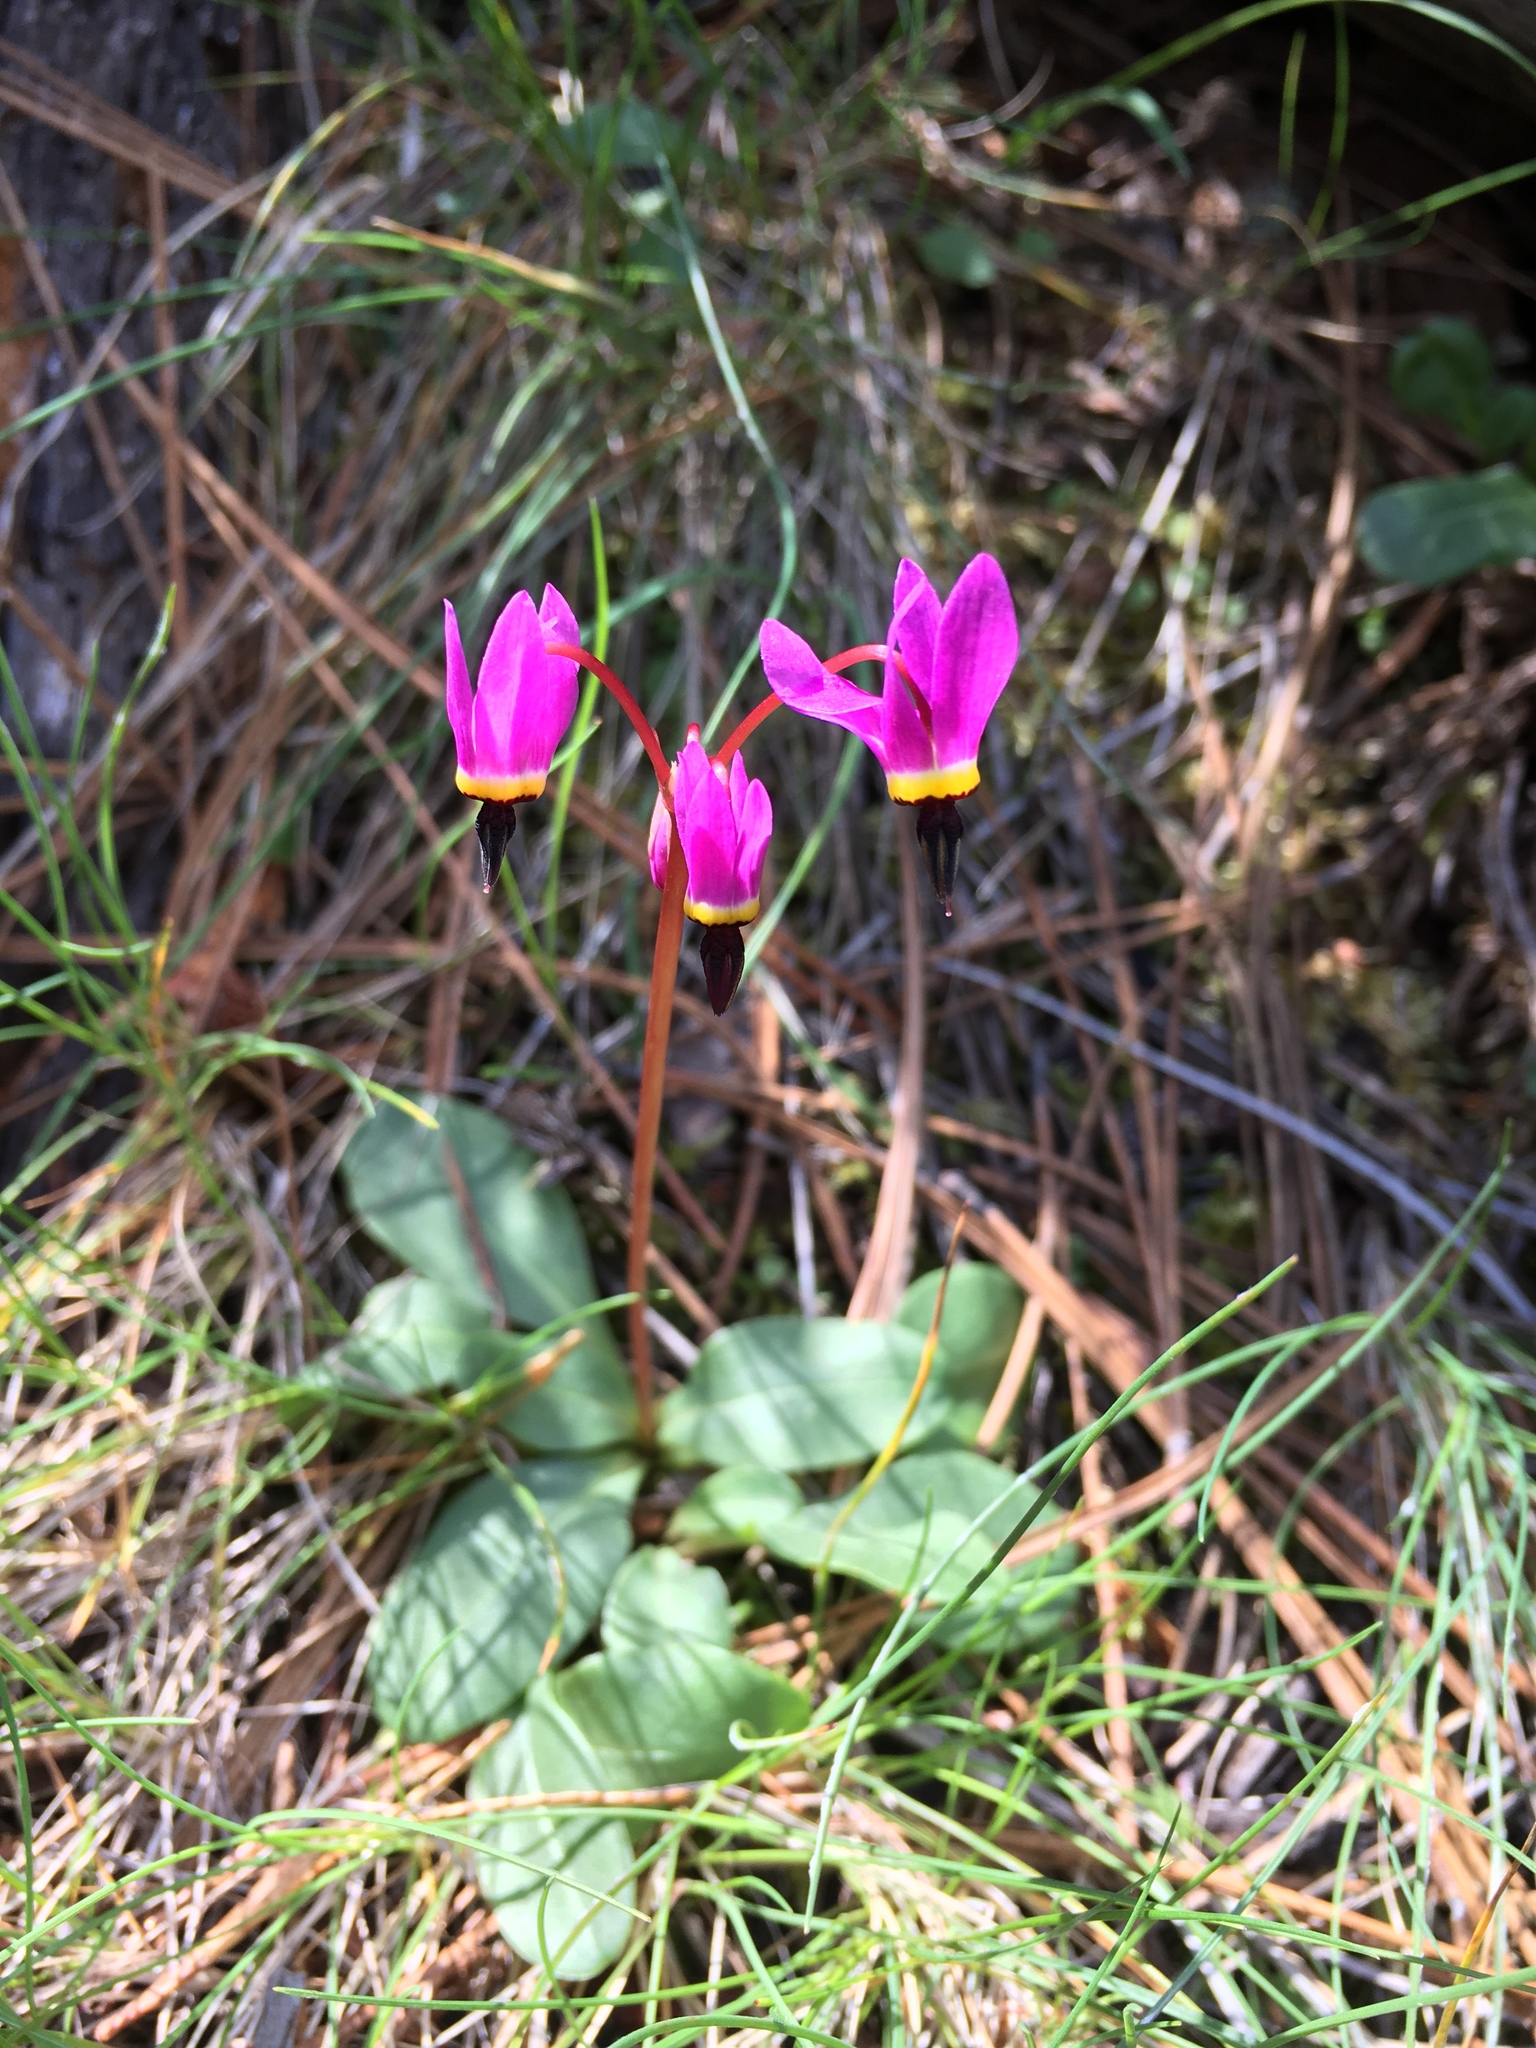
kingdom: Plantae
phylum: Tracheophyta
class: Magnoliopsida
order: Ericales
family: Primulaceae
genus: Dodecatheon
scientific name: Dodecatheon hendersonii
